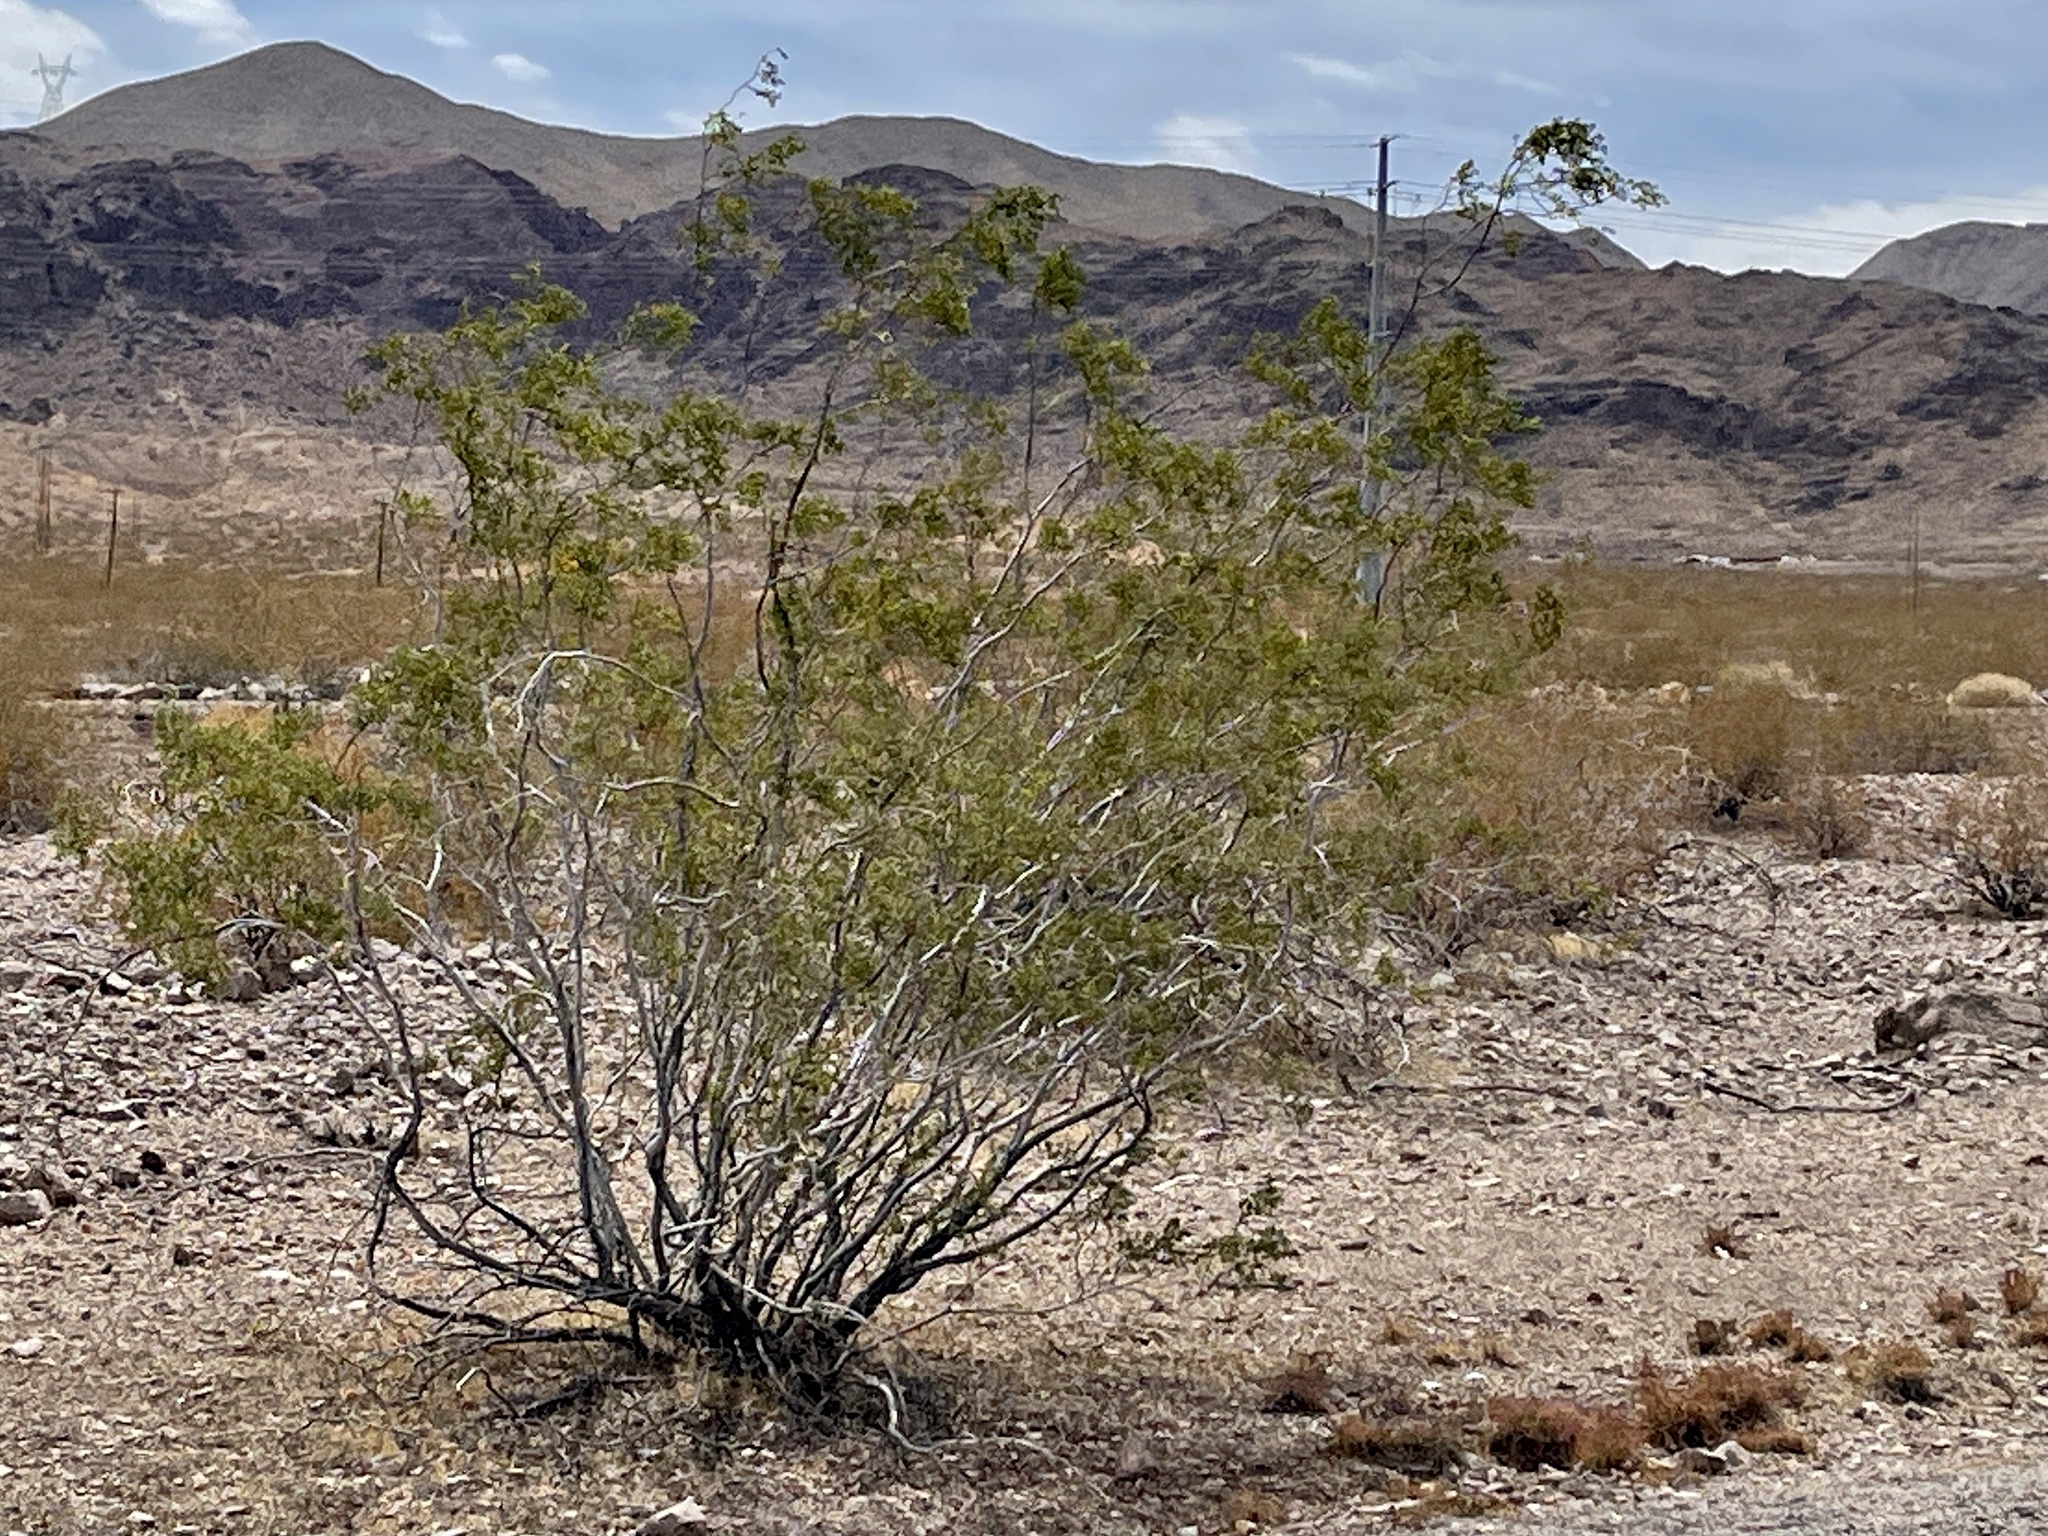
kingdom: Plantae
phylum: Tracheophyta
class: Magnoliopsida
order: Zygophyllales
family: Zygophyllaceae
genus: Larrea
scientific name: Larrea tridentata
